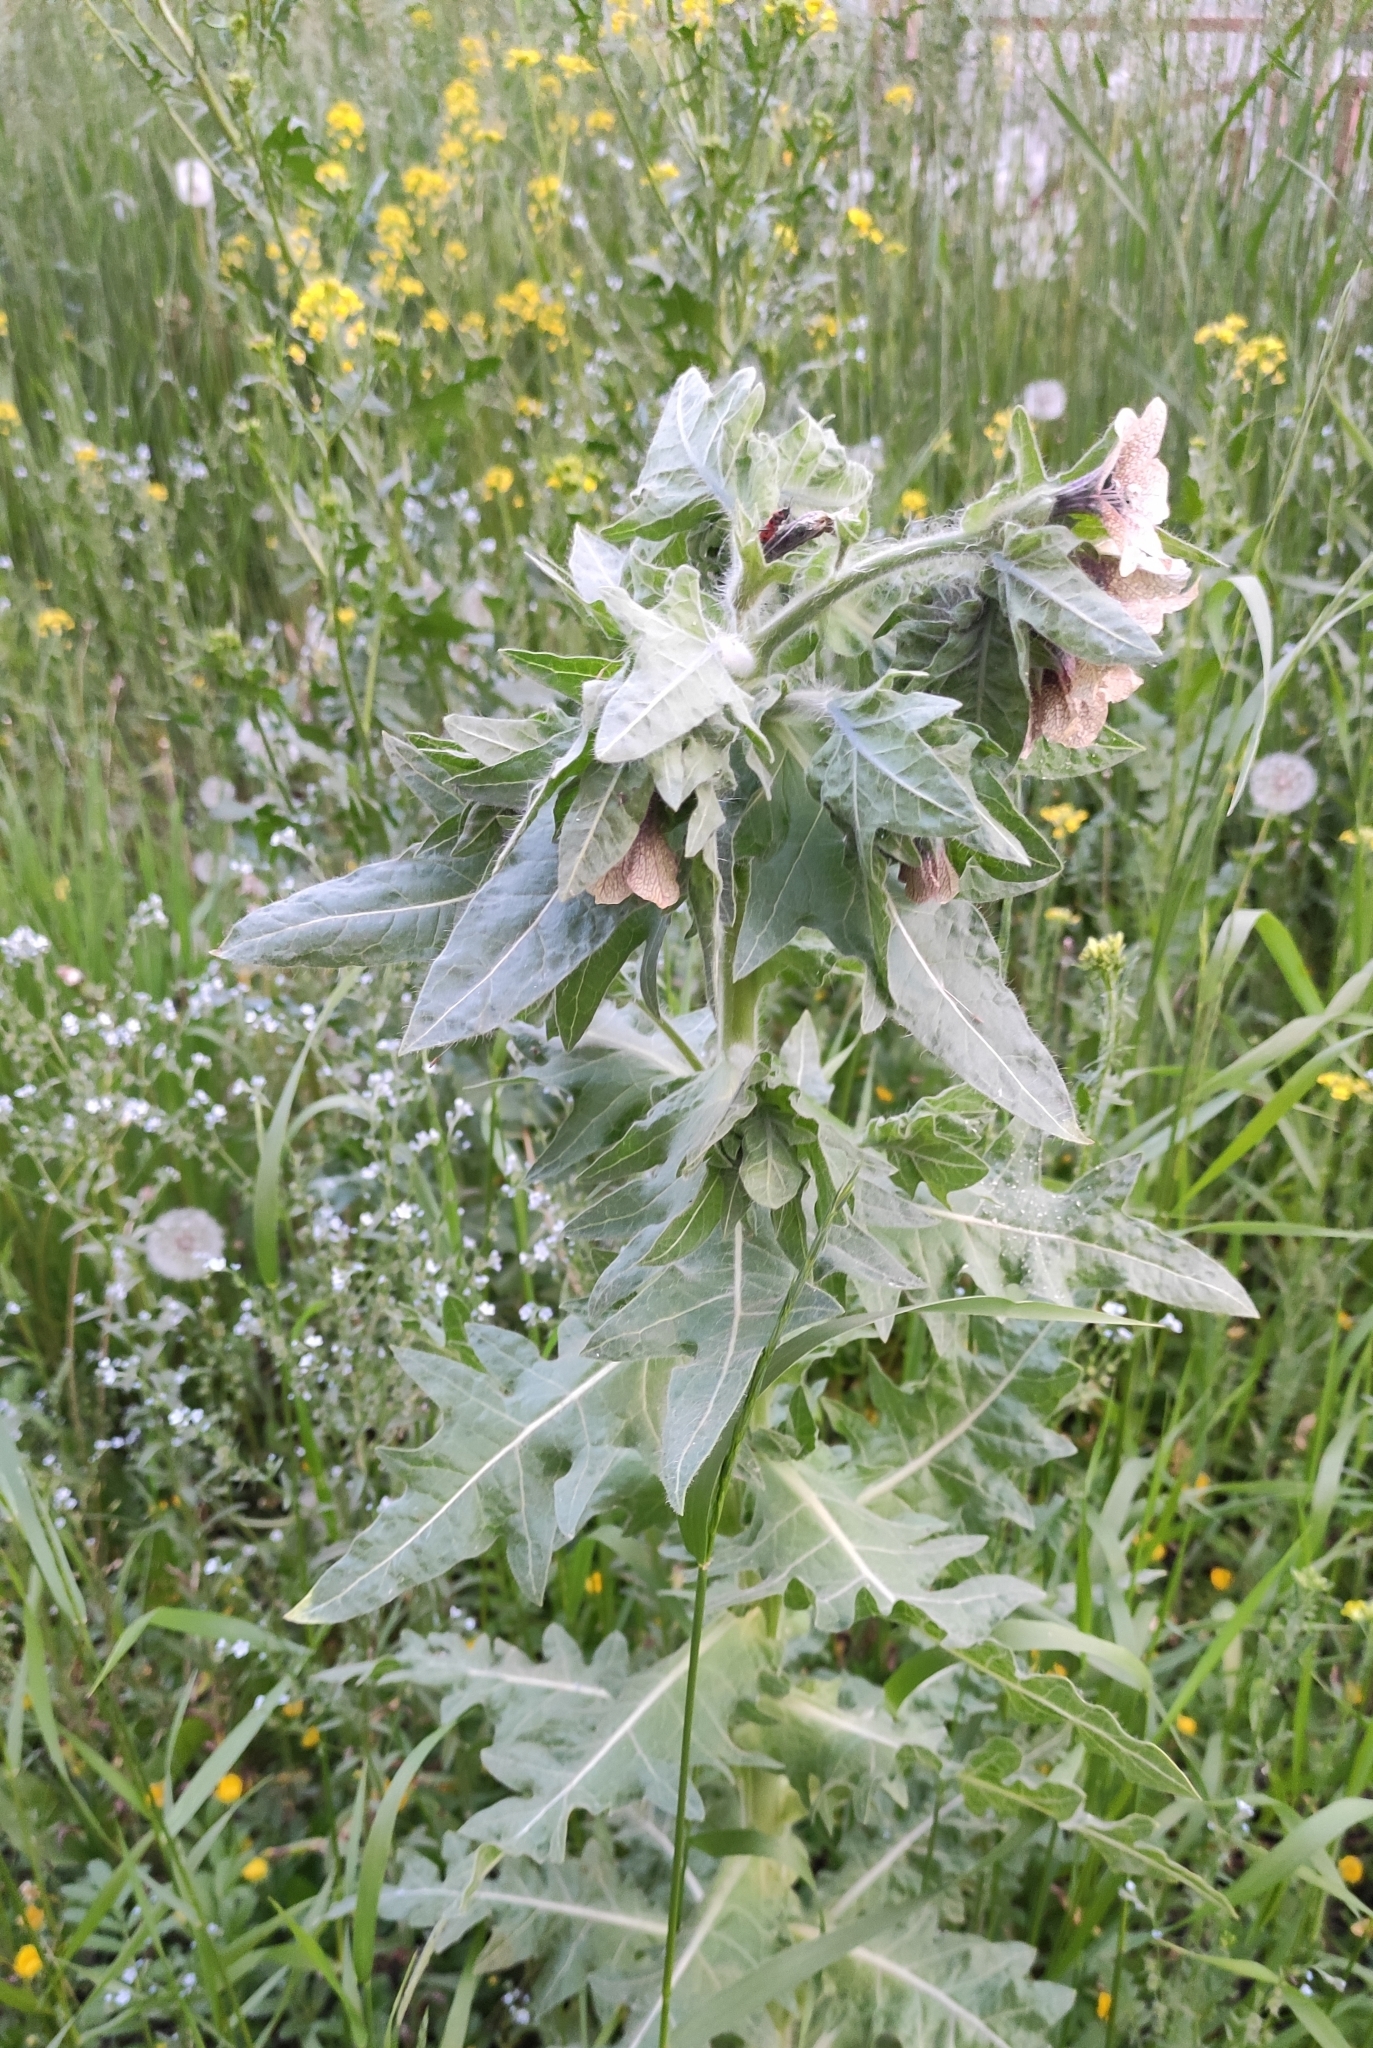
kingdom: Plantae
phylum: Tracheophyta
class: Magnoliopsida
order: Solanales
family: Solanaceae
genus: Hyoscyamus
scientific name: Hyoscyamus niger
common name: Henbane
